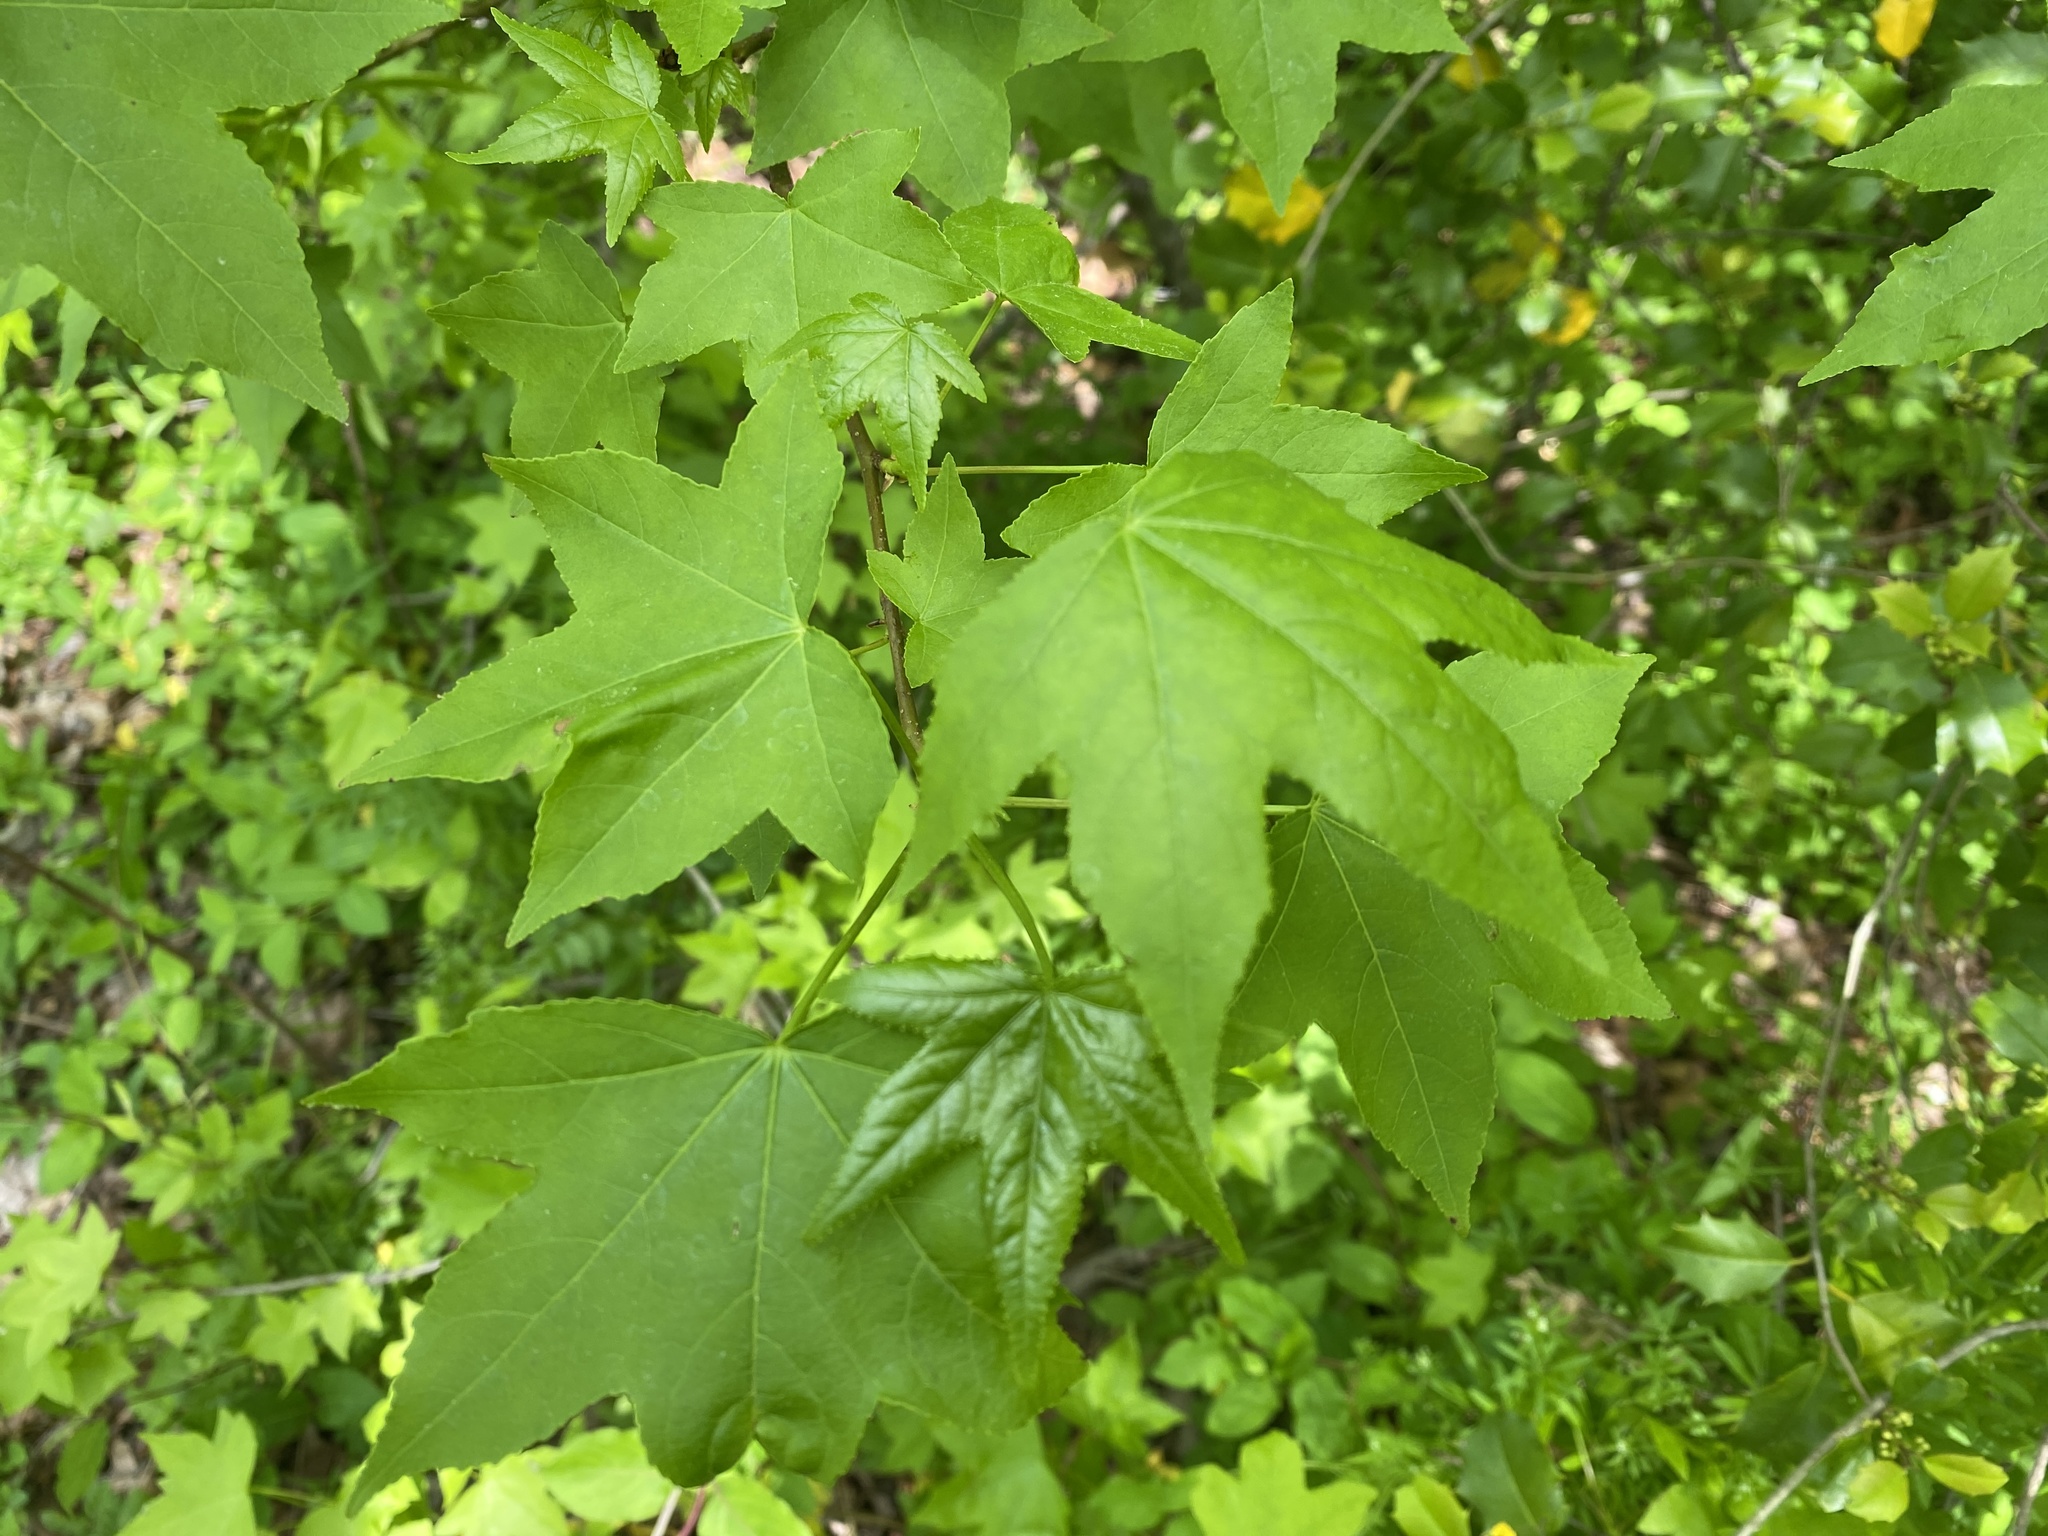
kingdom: Plantae
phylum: Tracheophyta
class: Magnoliopsida
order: Saxifragales
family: Altingiaceae
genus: Liquidambar
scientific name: Liquidambar styraciflua
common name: Sweet gum
